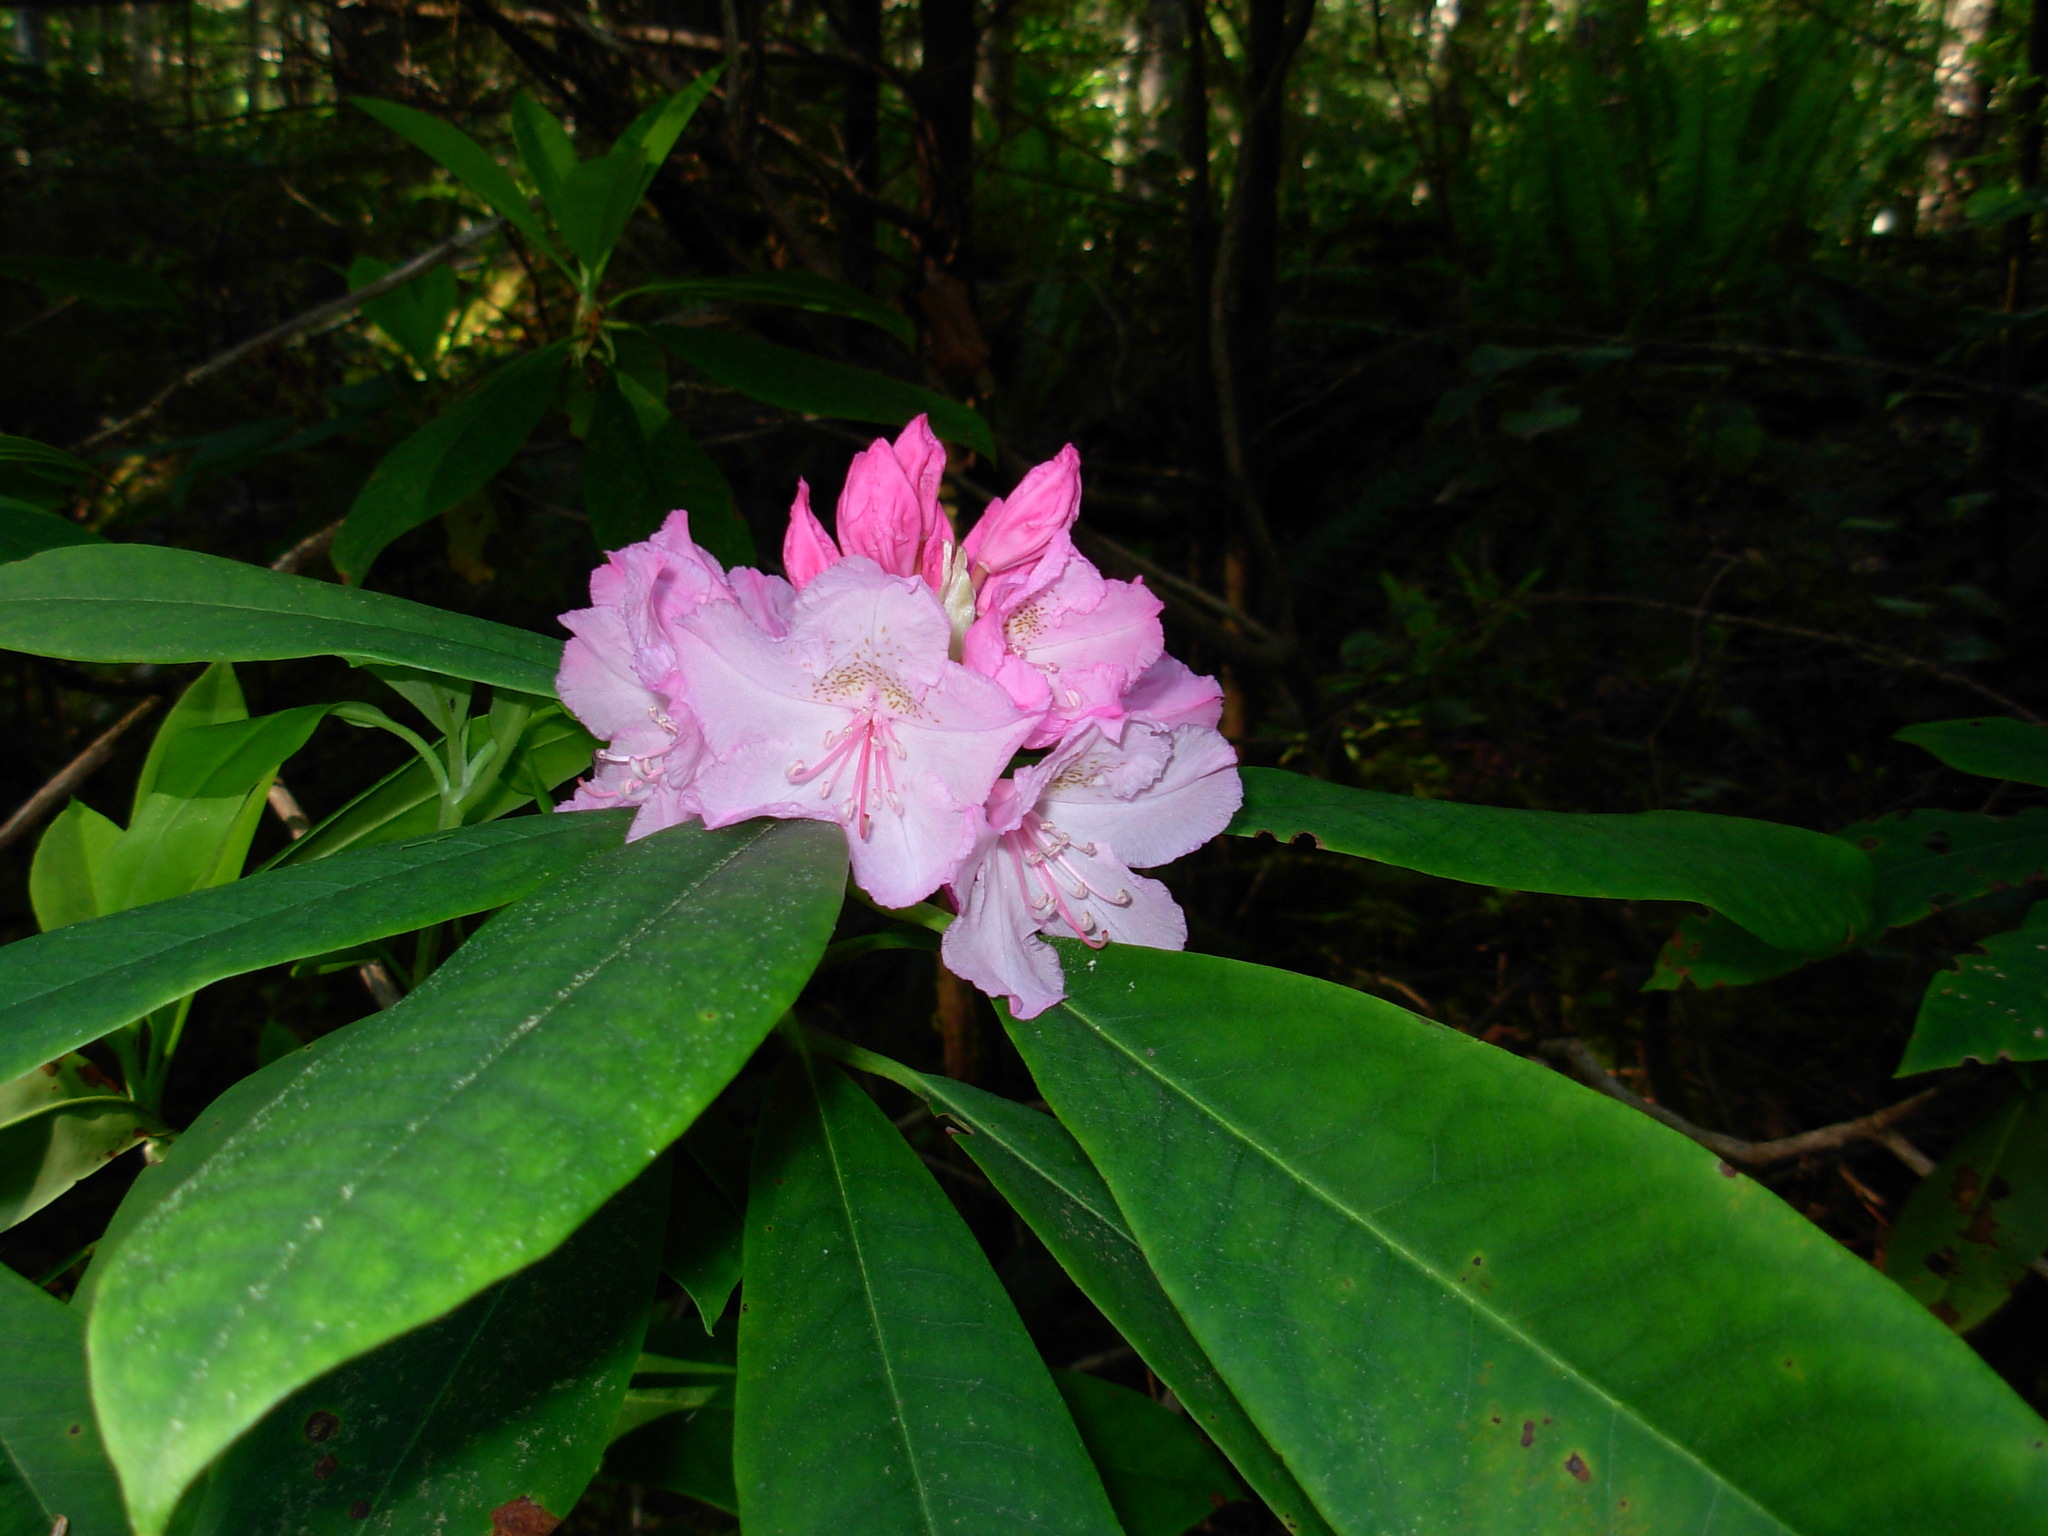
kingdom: Plantae
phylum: Tracheophyta
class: Magnoliopsida
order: Ericales
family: Ericaceae
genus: Rhododendron
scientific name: Rhododendron macrophyllum
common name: California rose bay
